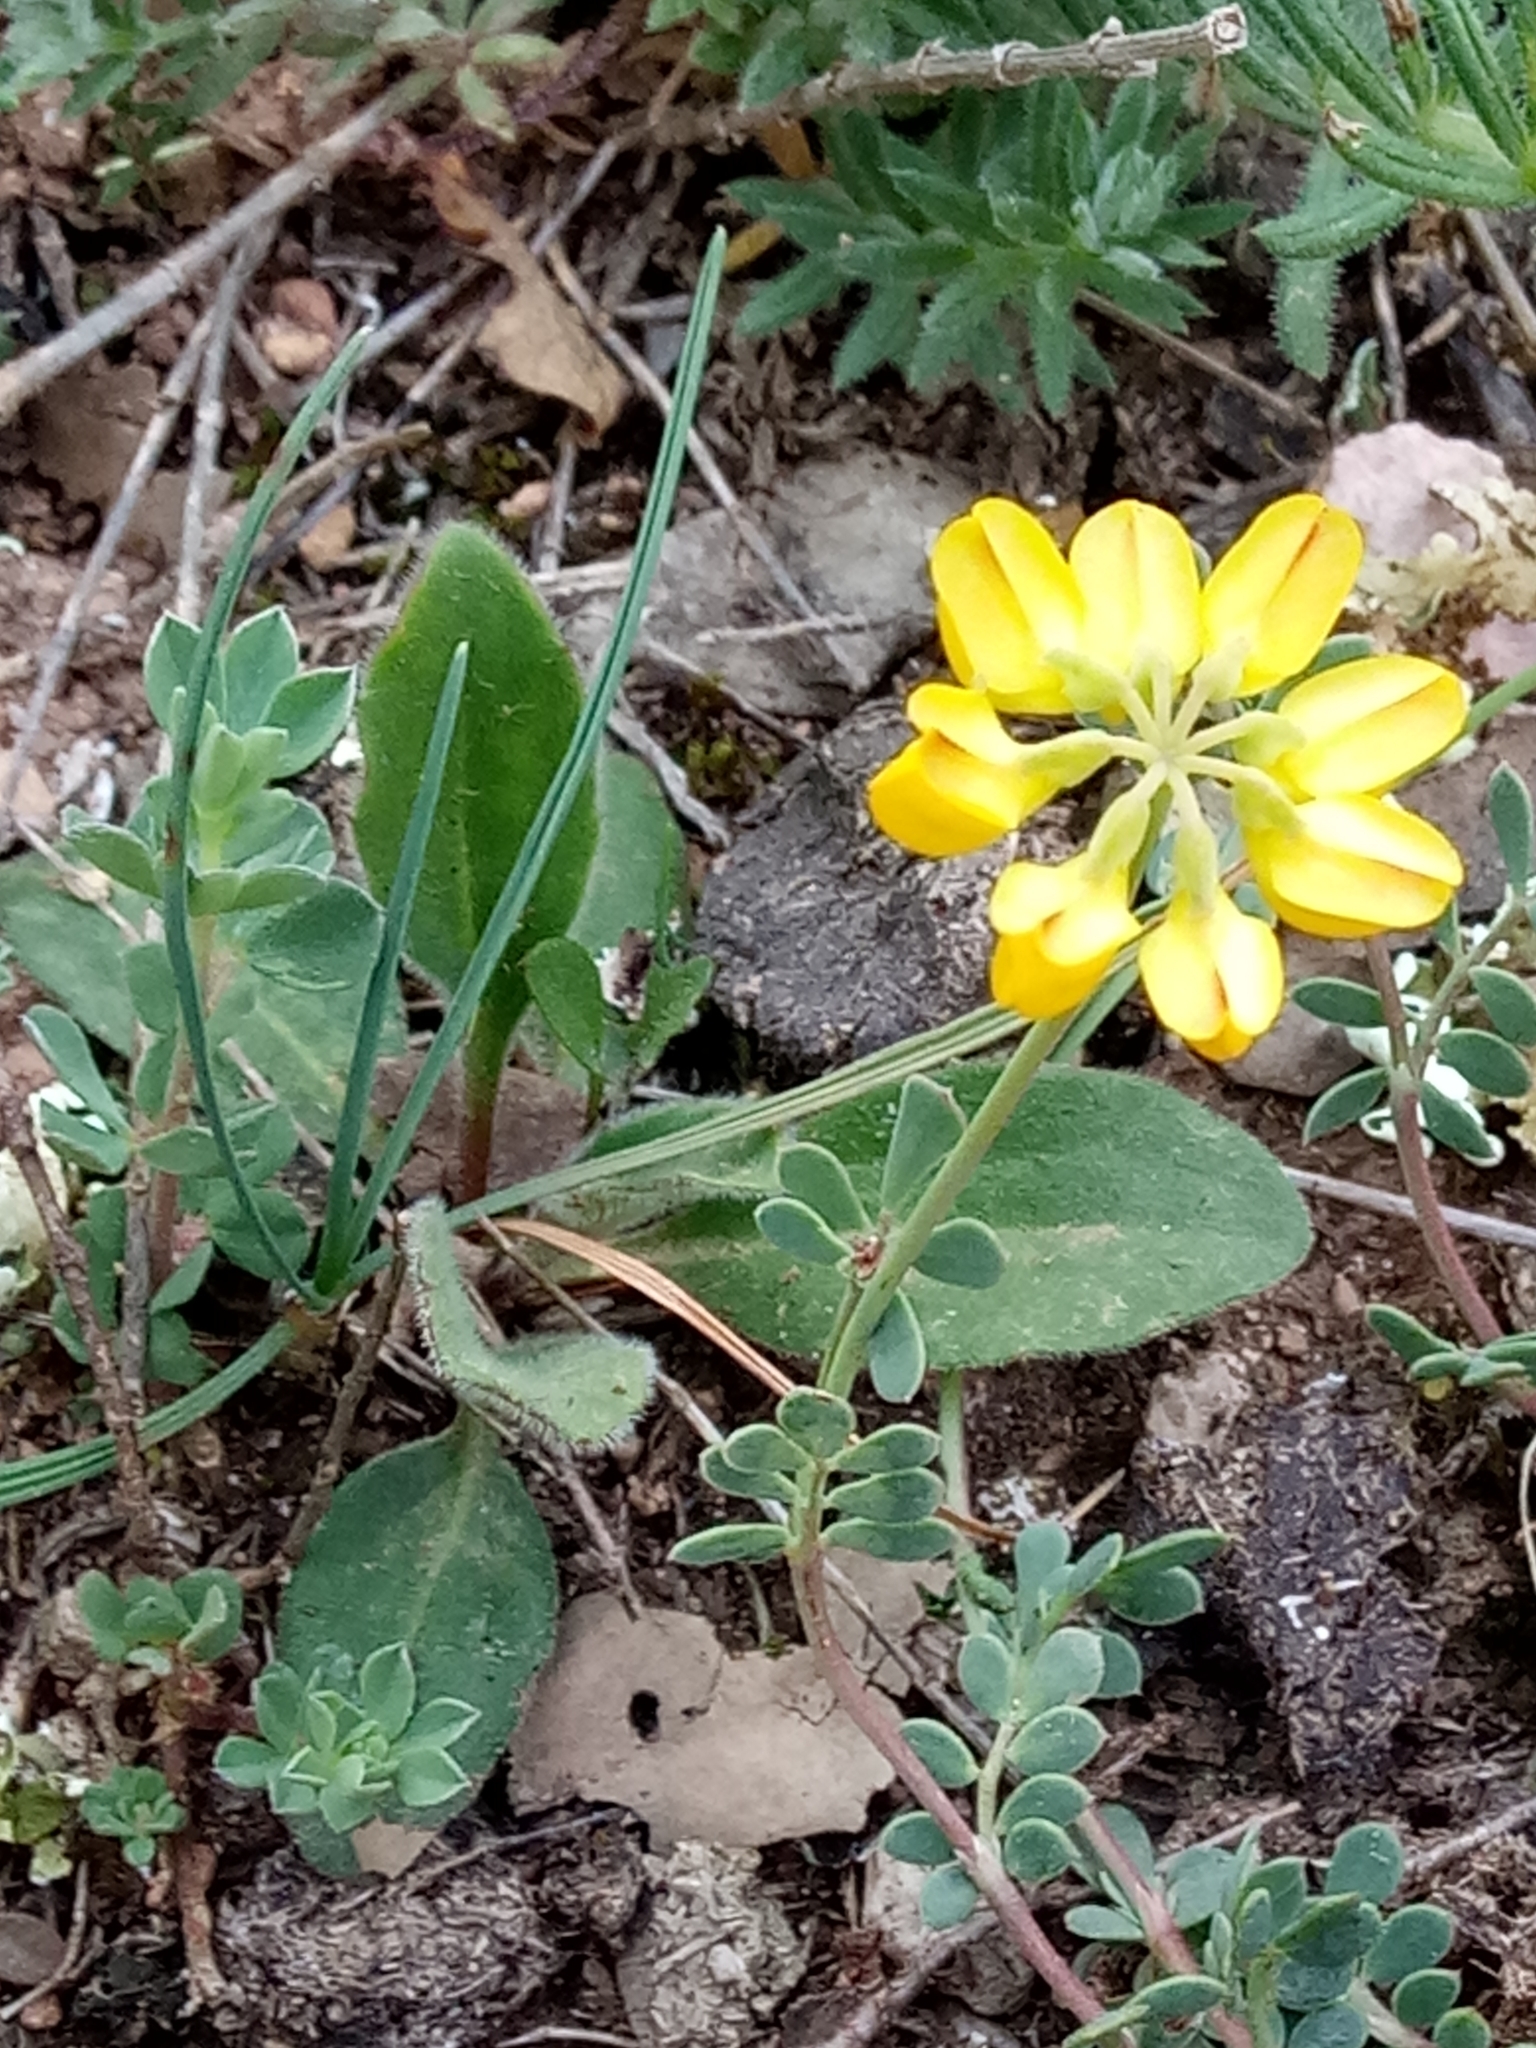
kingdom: Plantae
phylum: Tracheophyta
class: Magnoliopsida
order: Fabales
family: Fabaceae
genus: Coronilla
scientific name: Coronilla minima
